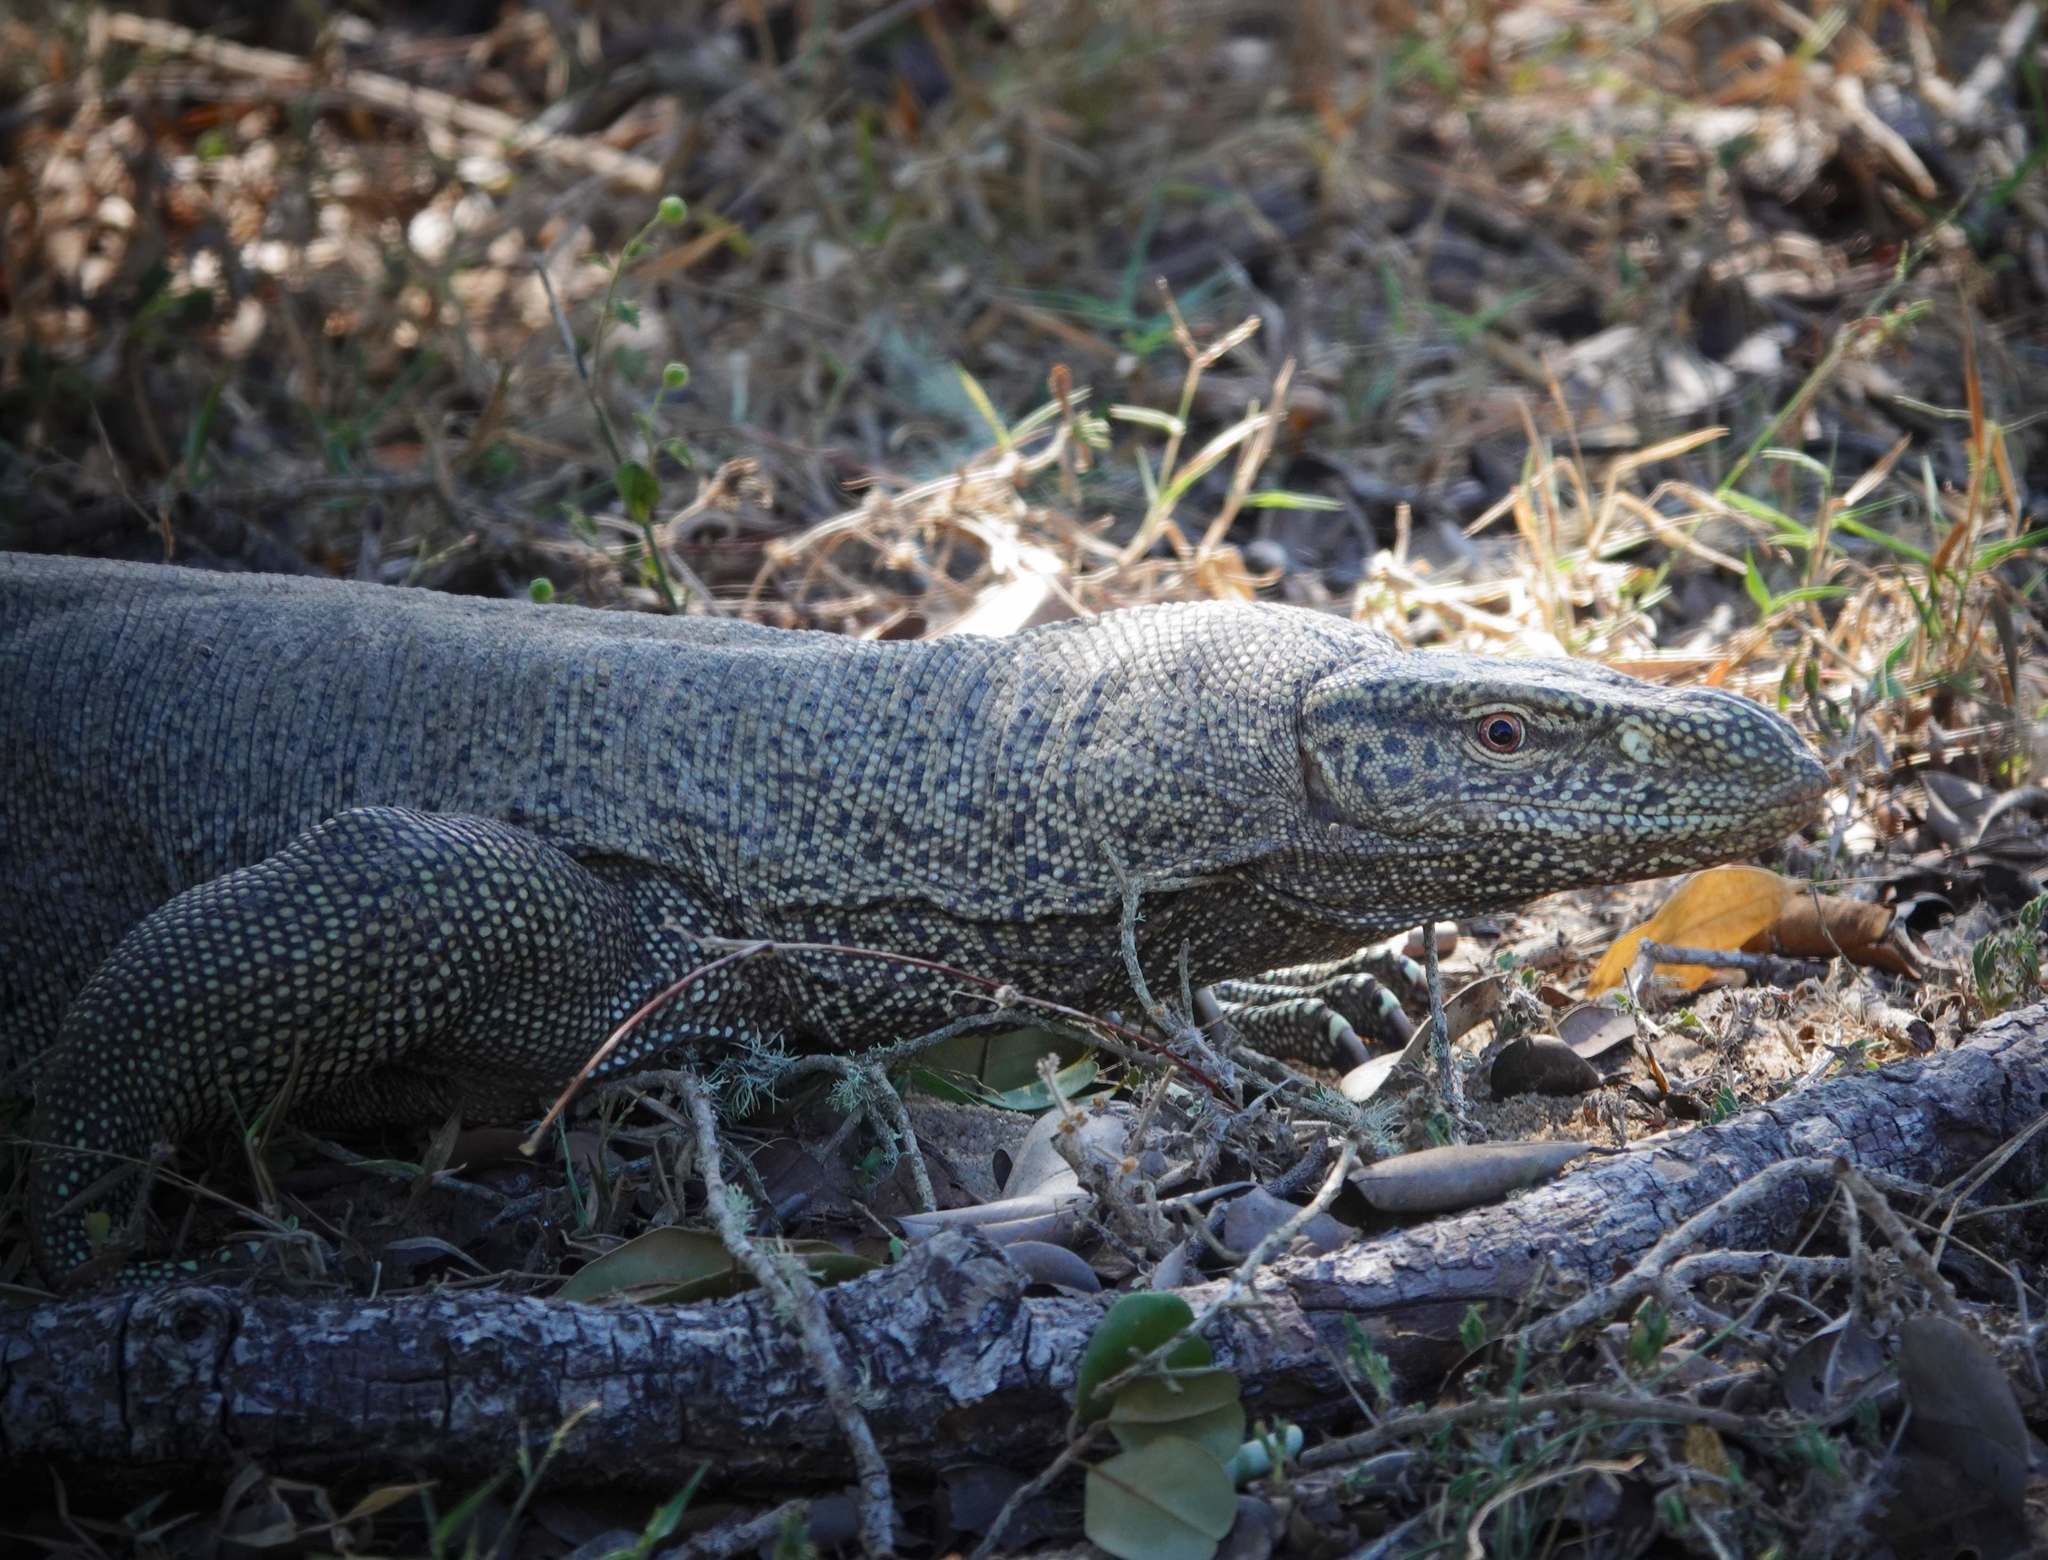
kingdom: Animalia
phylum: Chordata
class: Squamata
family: Varanidae
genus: Varanus
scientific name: Varanus bengalensis
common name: Bengal monitor
